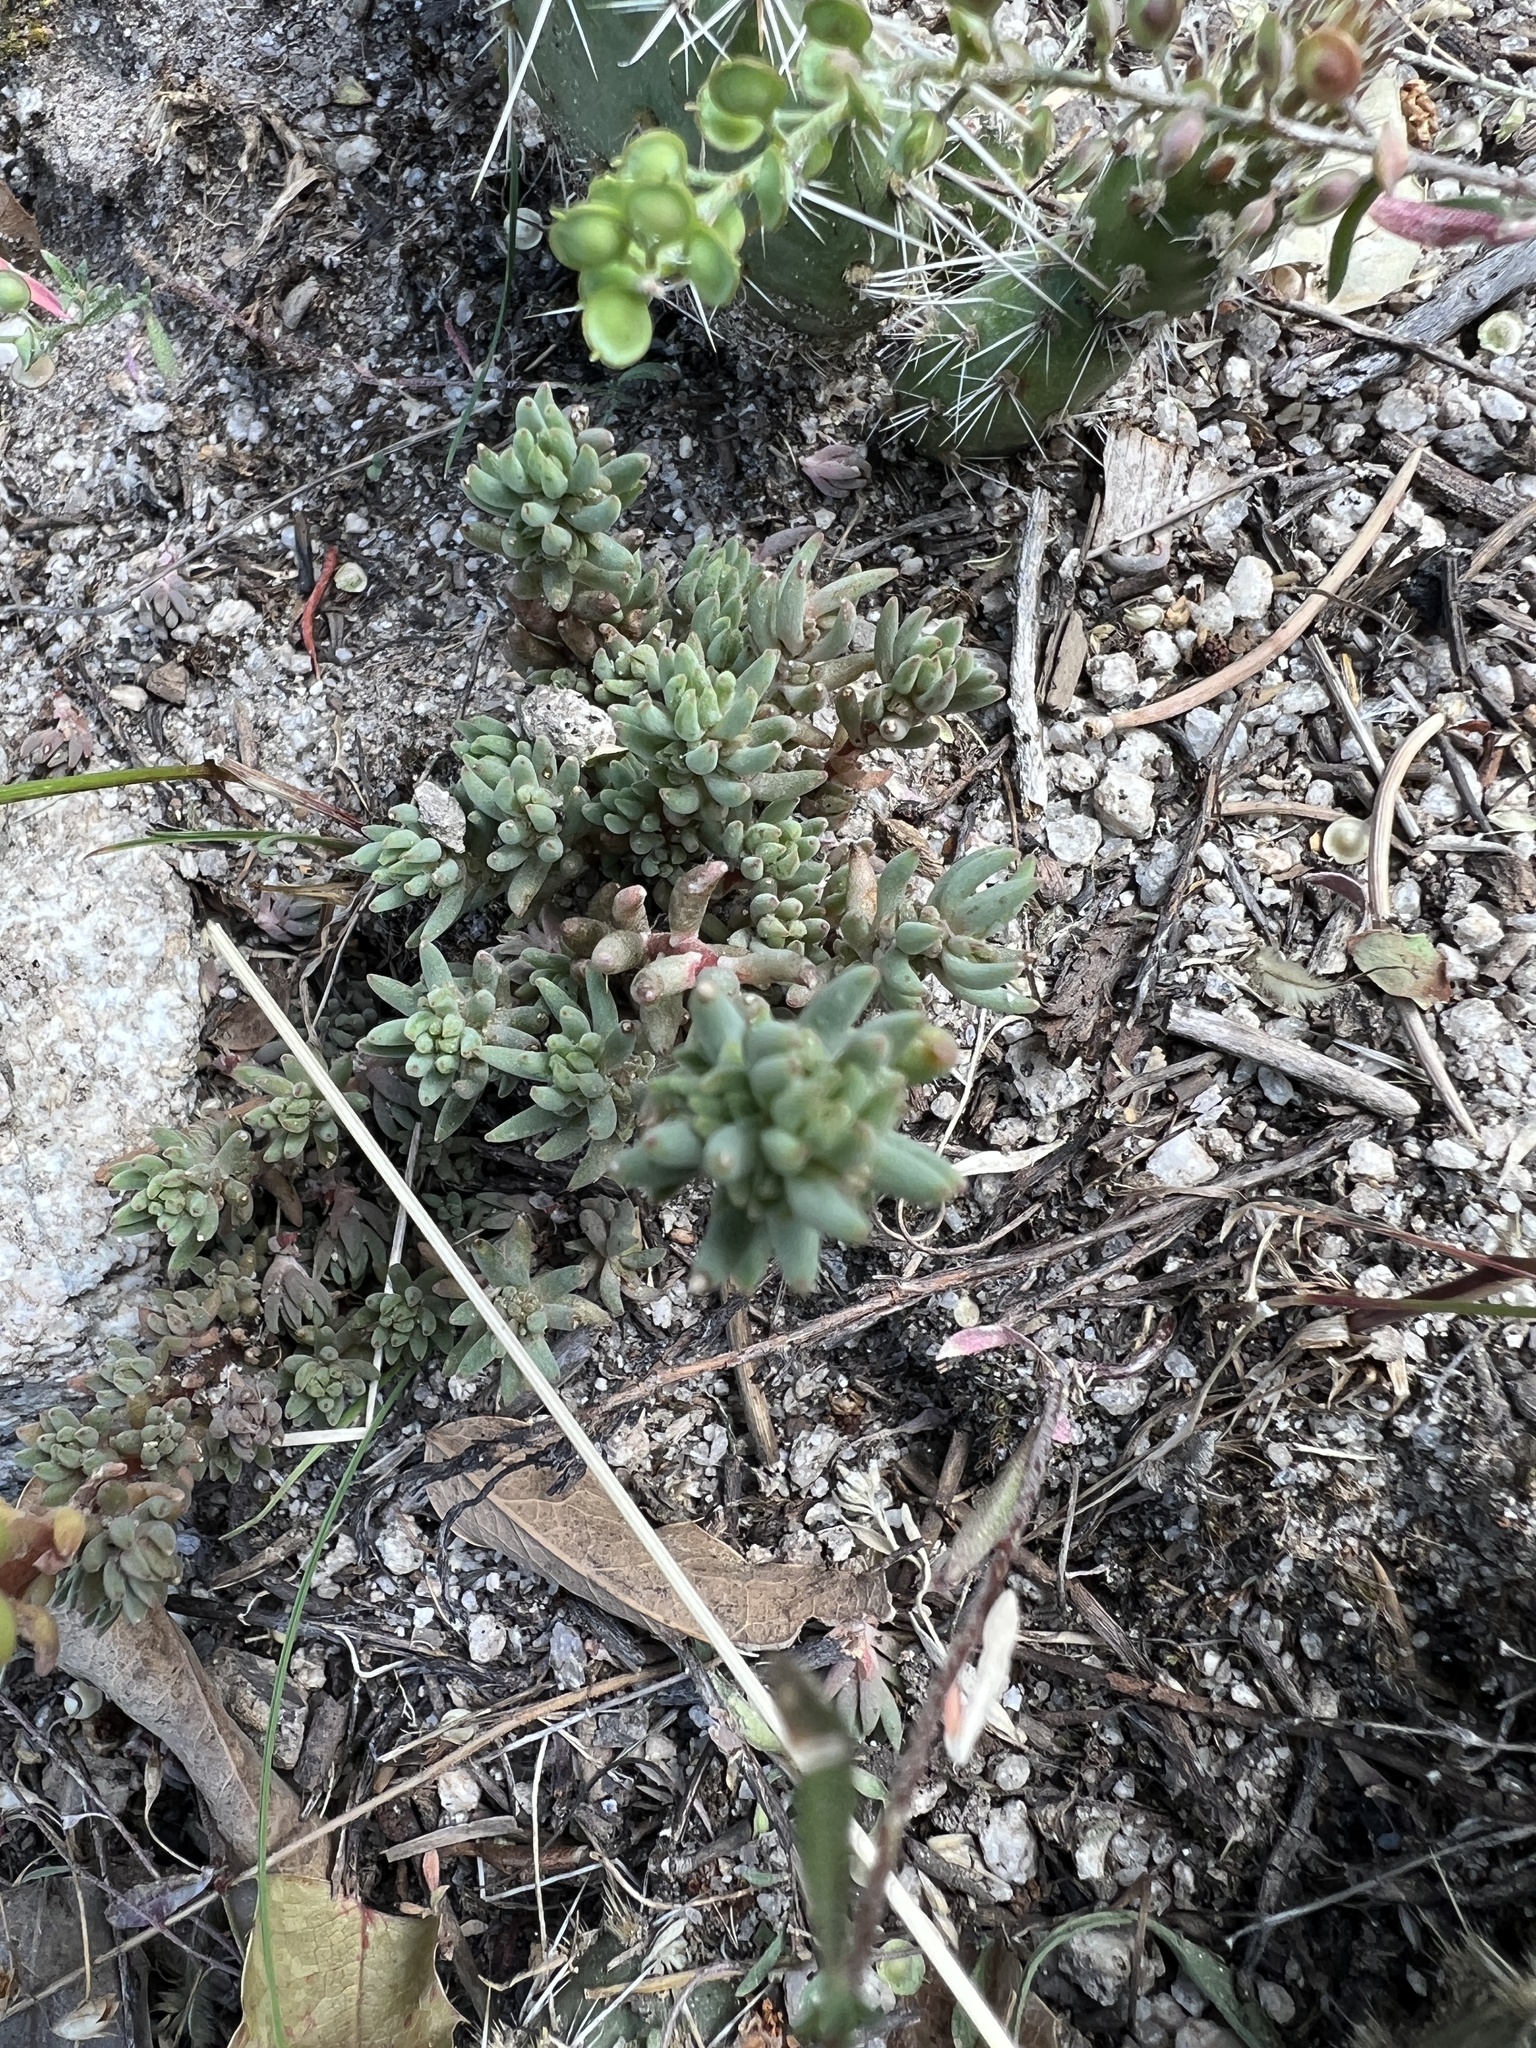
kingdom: Plantae
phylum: Tracheophyta
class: Magnoliopsida
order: Saxifragales
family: Crassulaceae
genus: Sedum
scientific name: Sedum lanceolatum
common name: Common stonecrop
